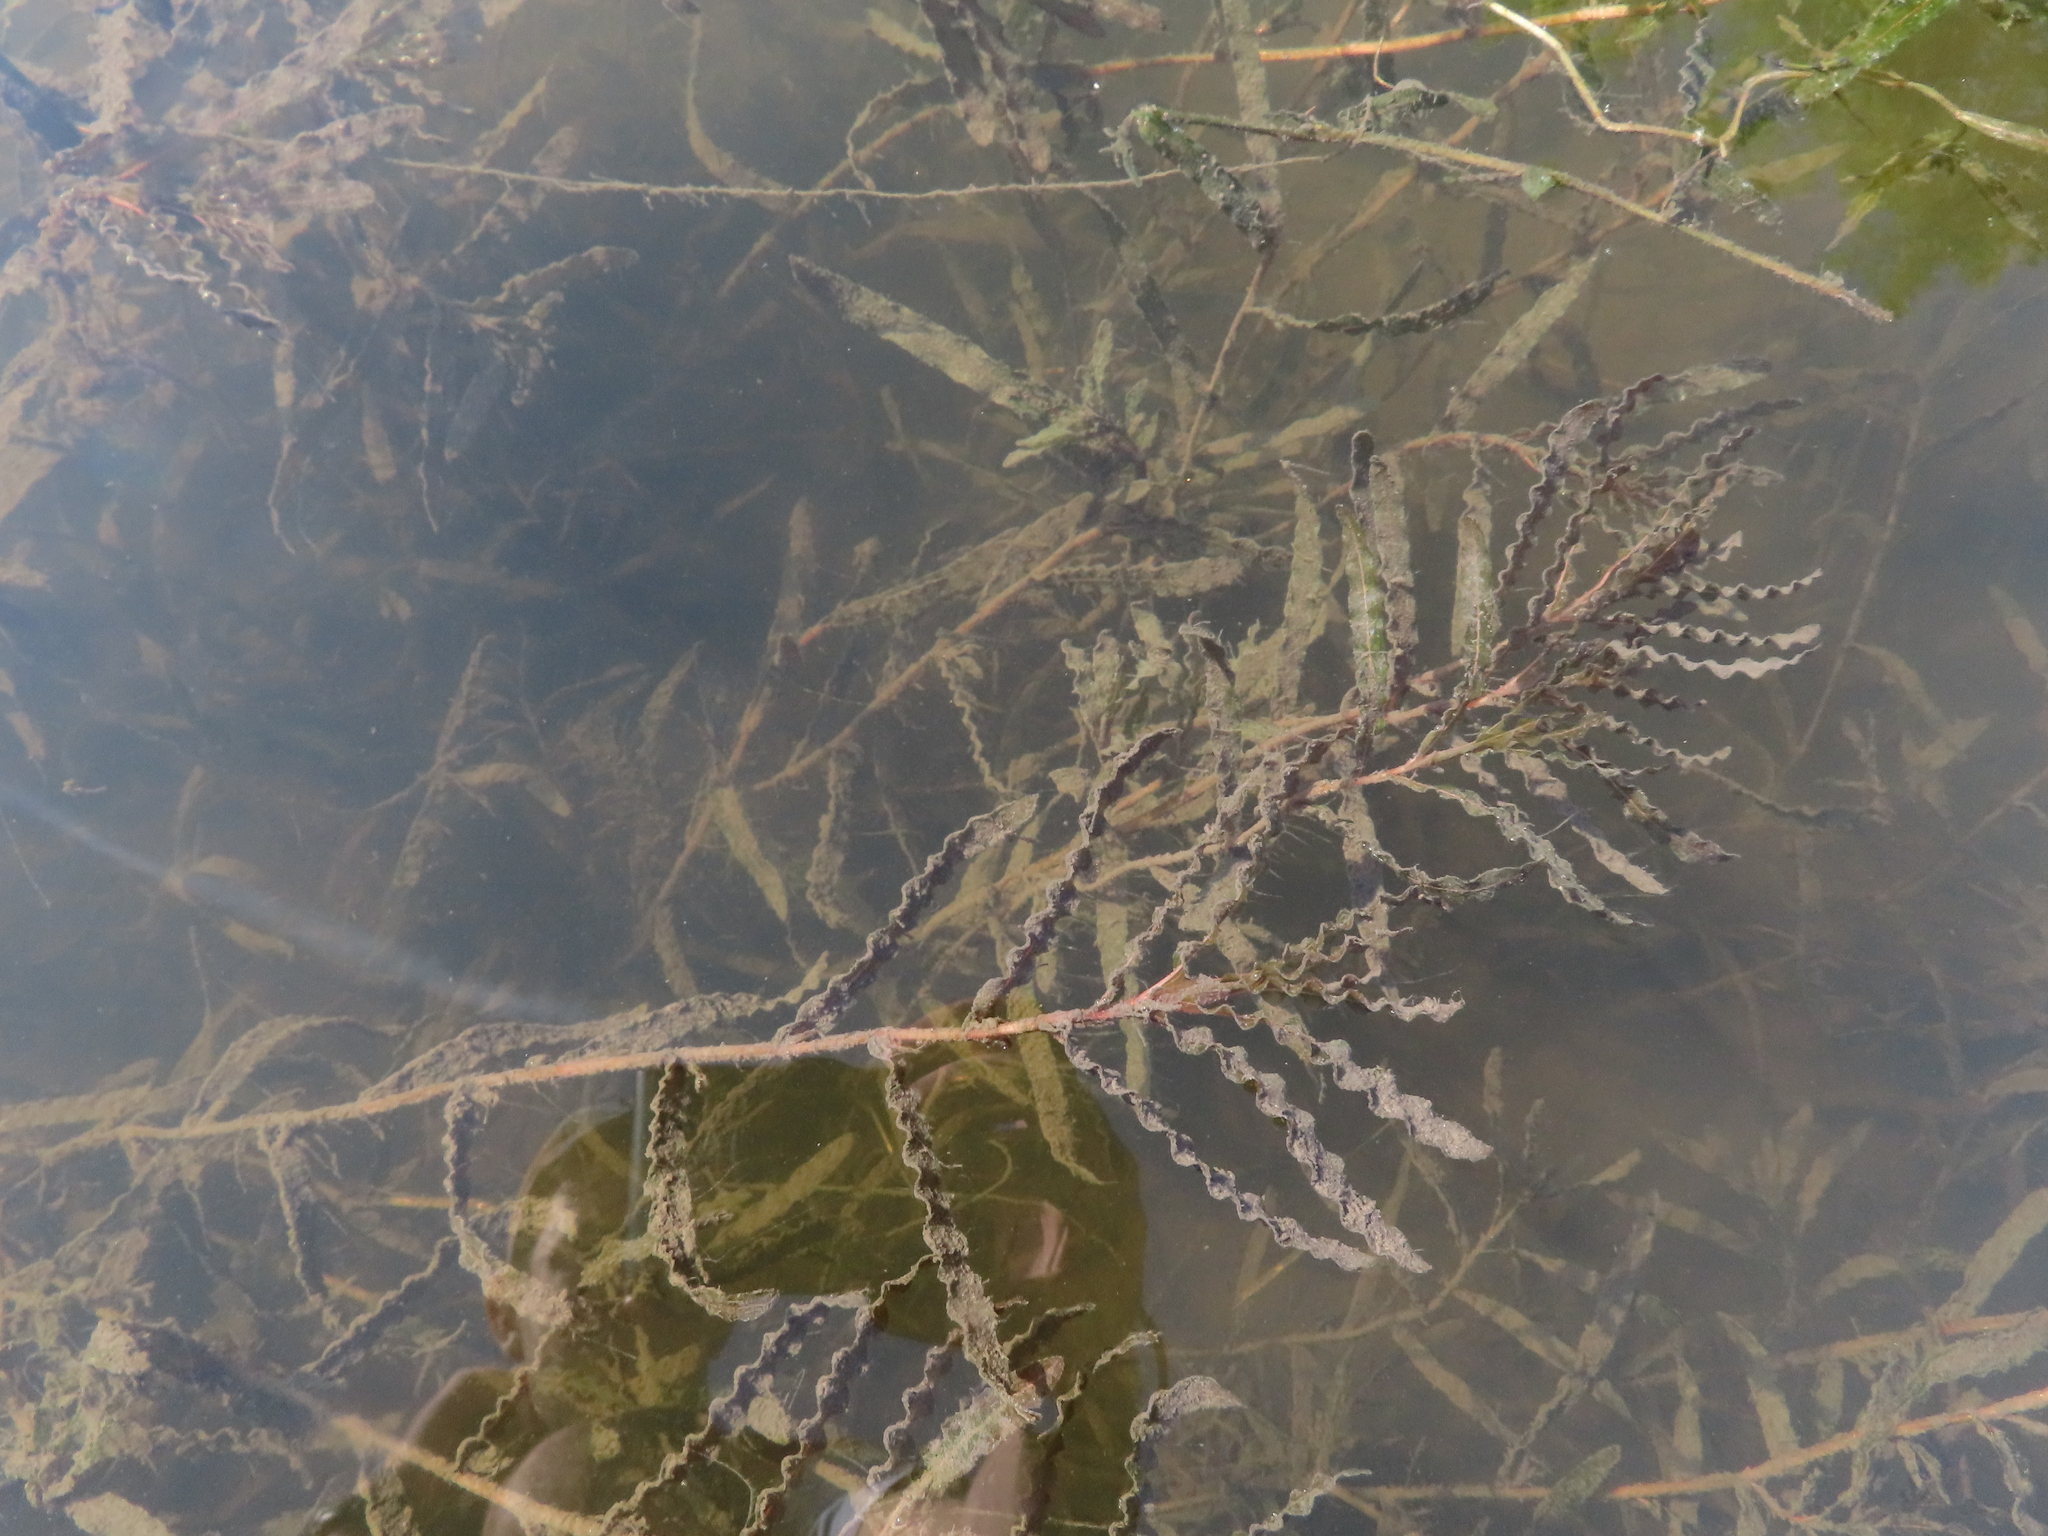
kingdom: Plantae
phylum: Tracheophyta
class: Liliopsida
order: Alismatales
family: Potamogetonaceae
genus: Potamogeton
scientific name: Potamogeton crispus
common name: Curled pondweed
